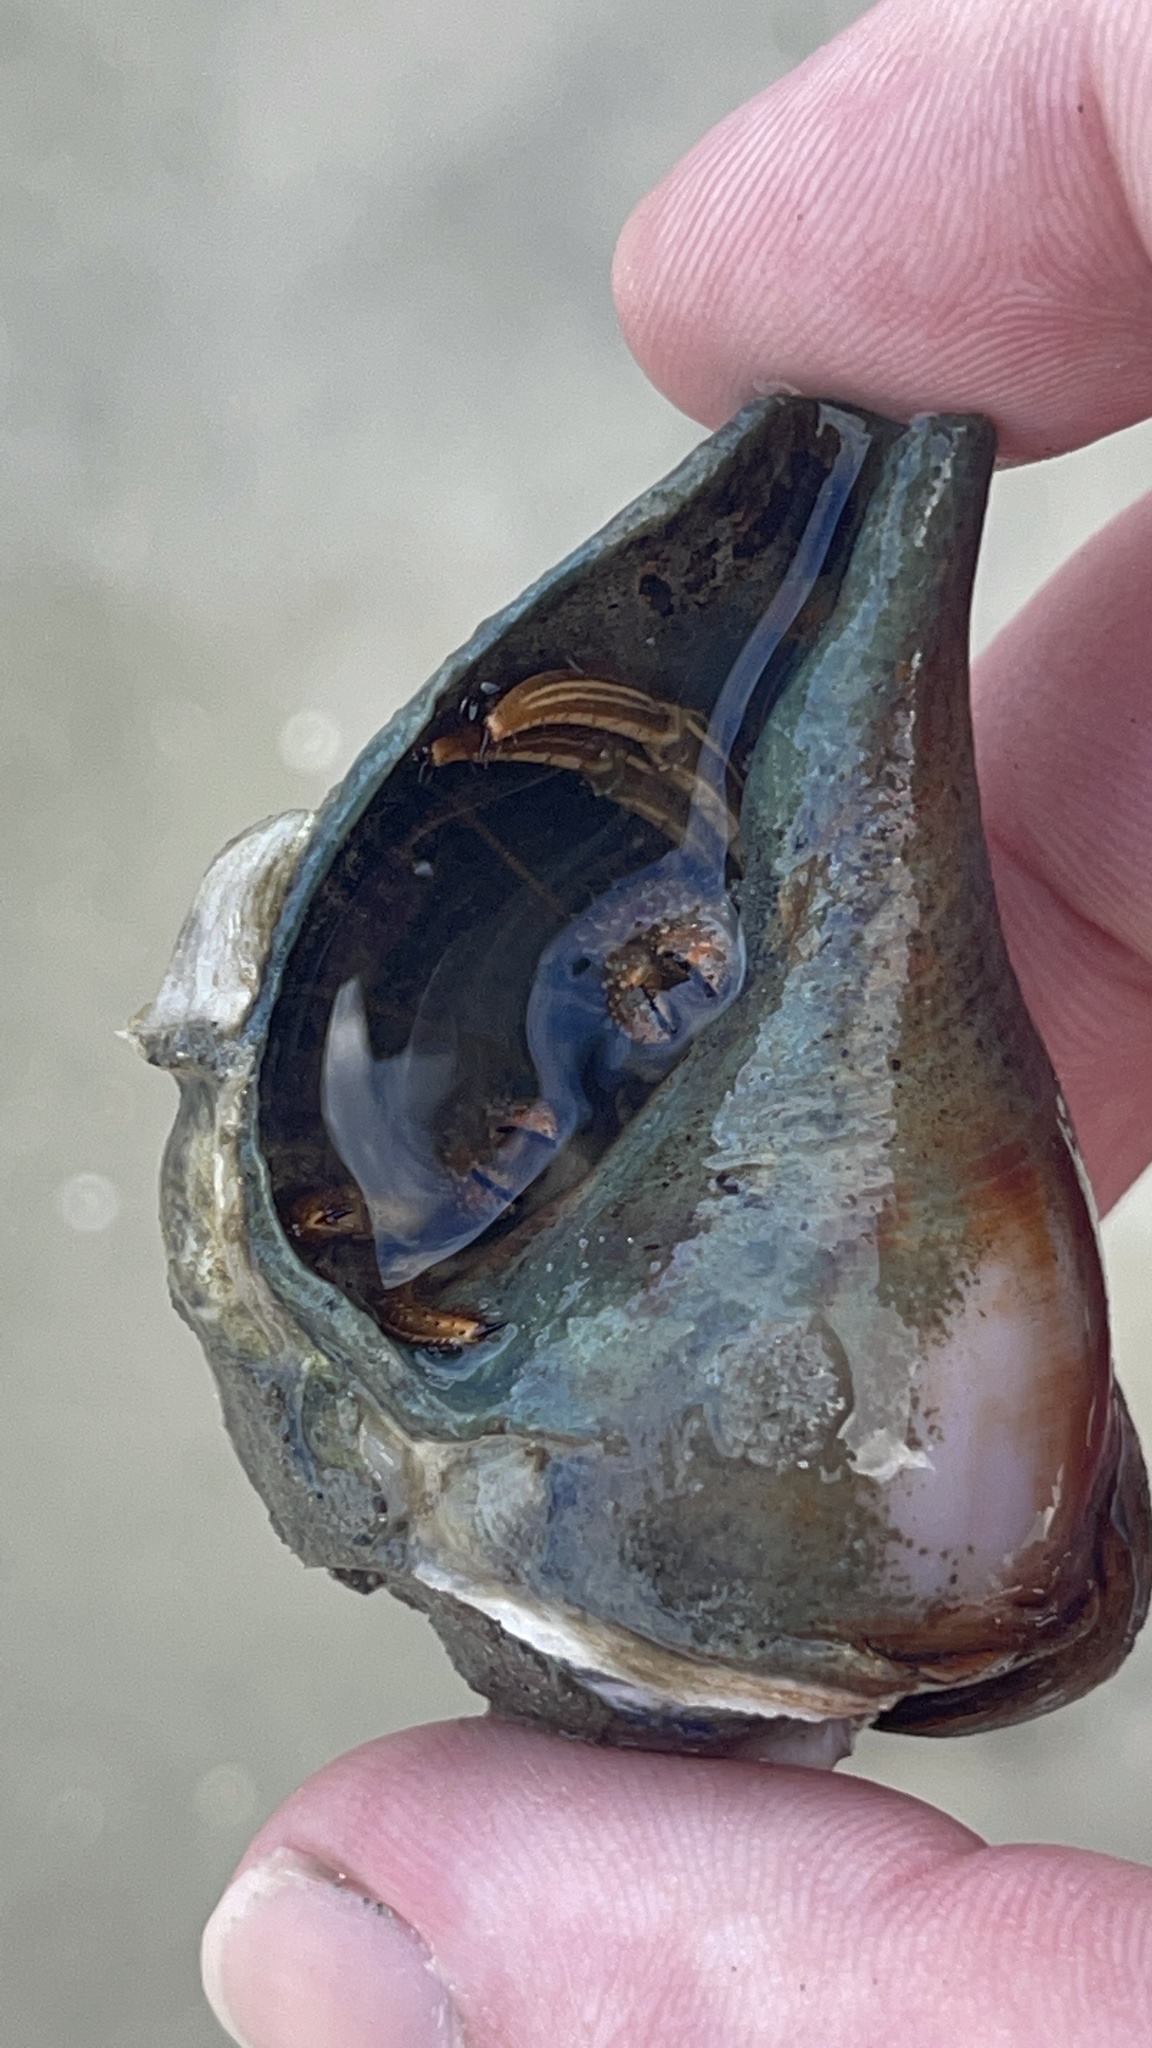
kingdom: Animalia
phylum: Arthropoda
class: Malacostraca
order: Decapoda
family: Diogenidae
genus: Clibanarius
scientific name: Clibanarius vittatus
